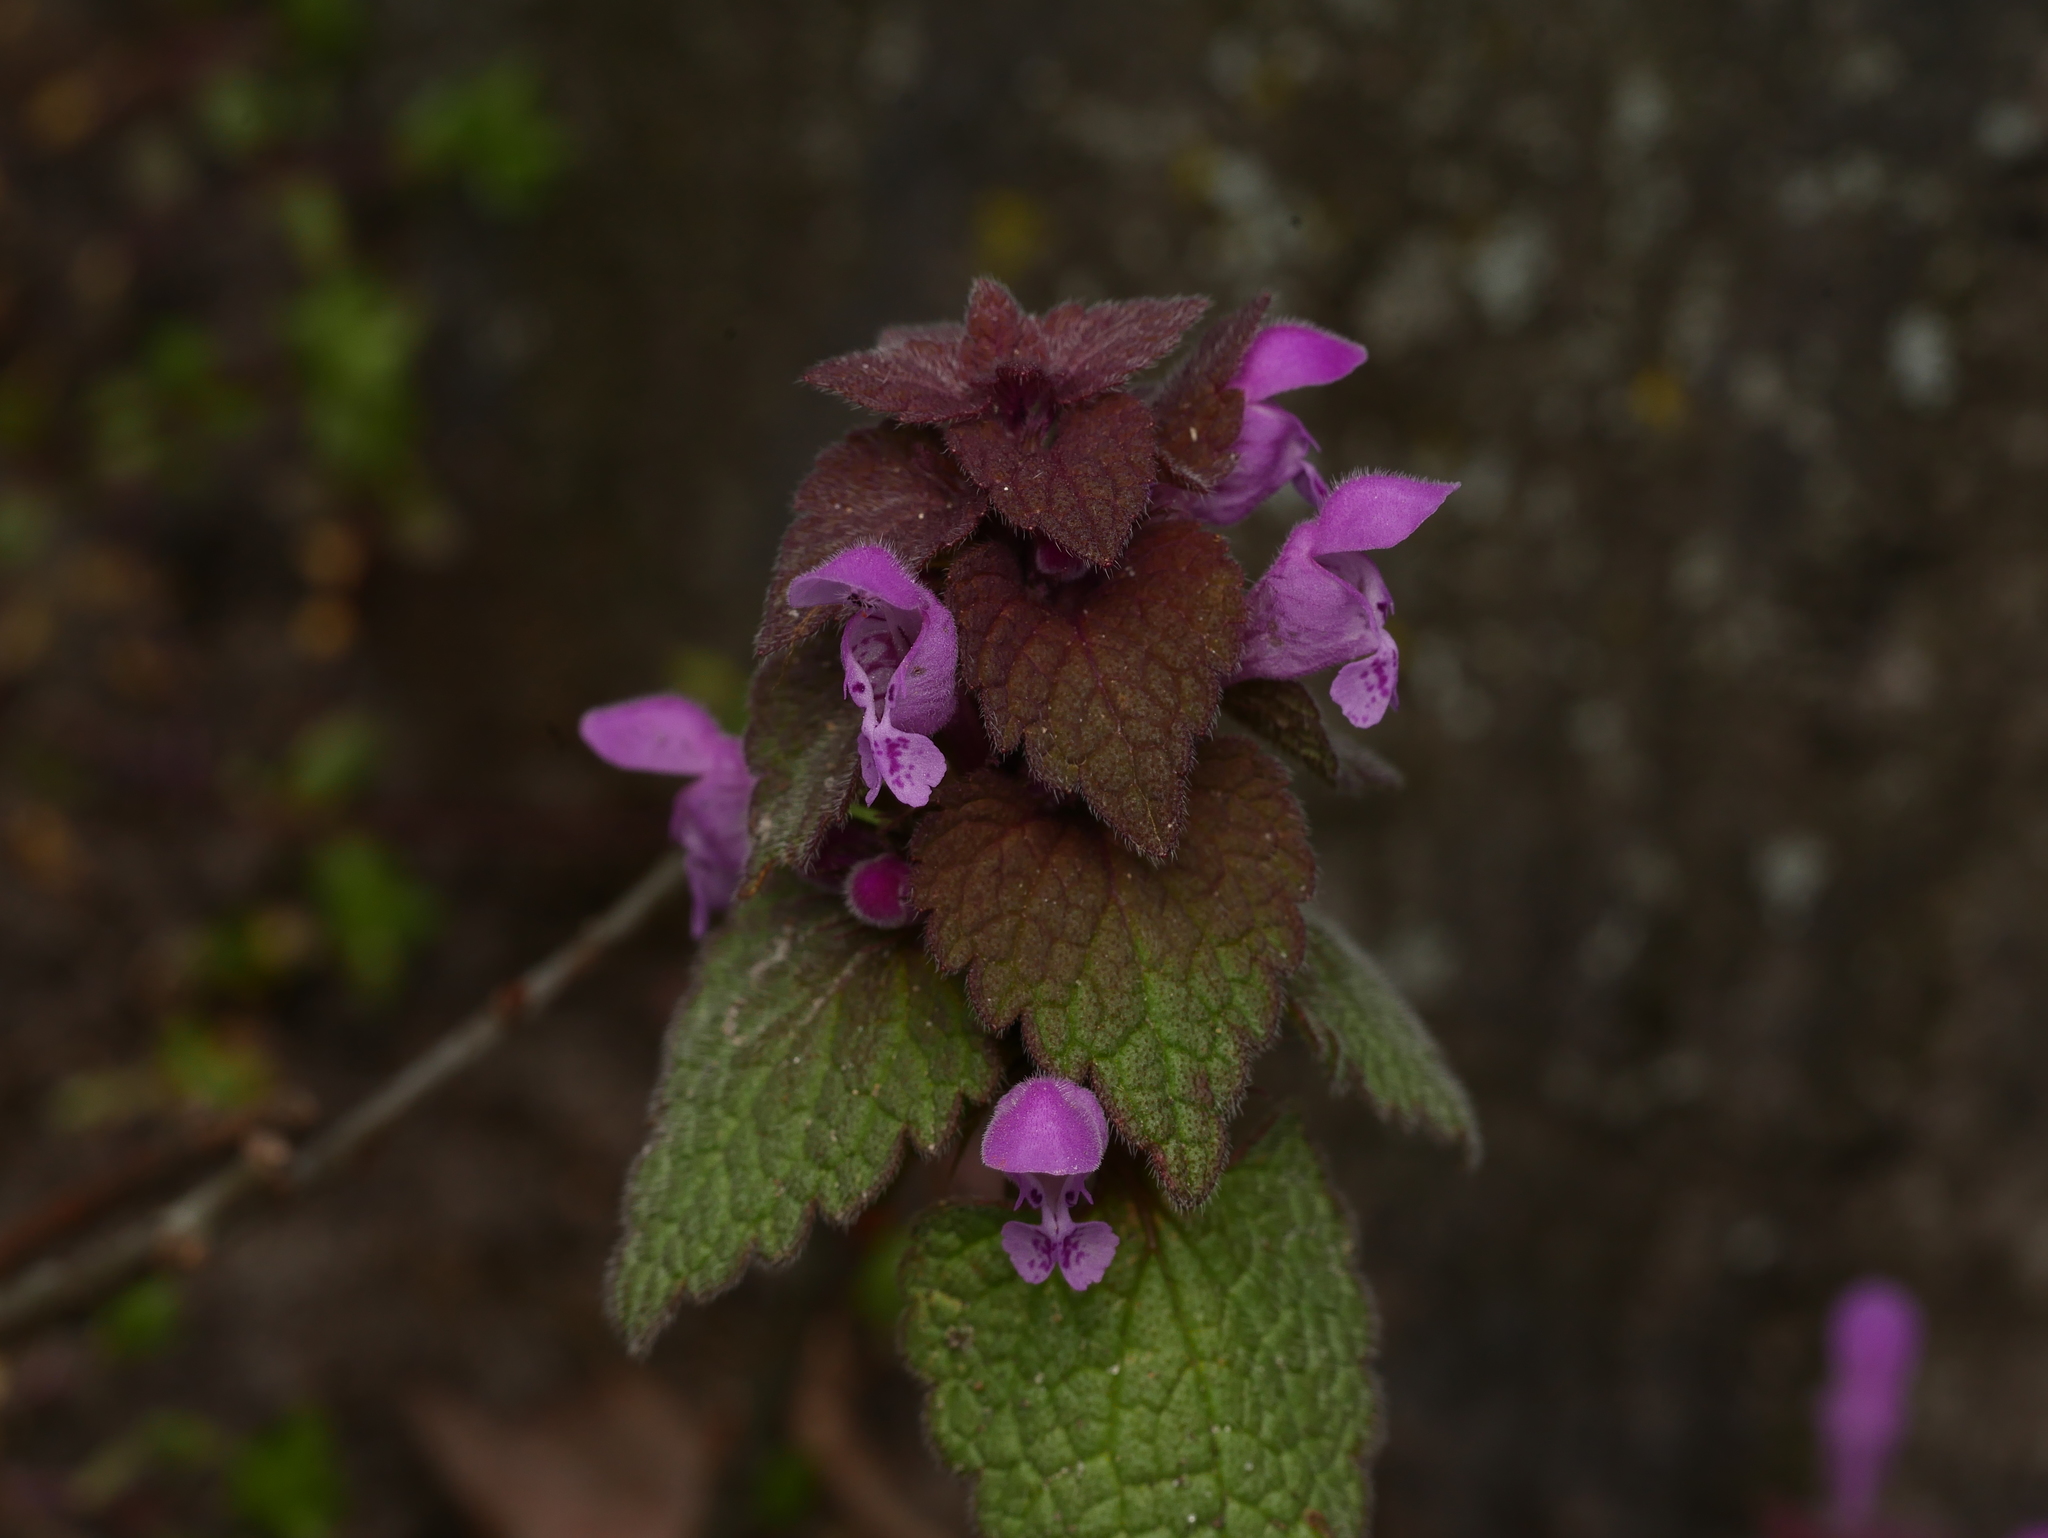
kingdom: Plantae
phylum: Tracheophyta
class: Magnoliopsida
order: Lamiales
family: Lamiaceae
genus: Lamium
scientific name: Lamium purpureum
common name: Red dead-nettle
